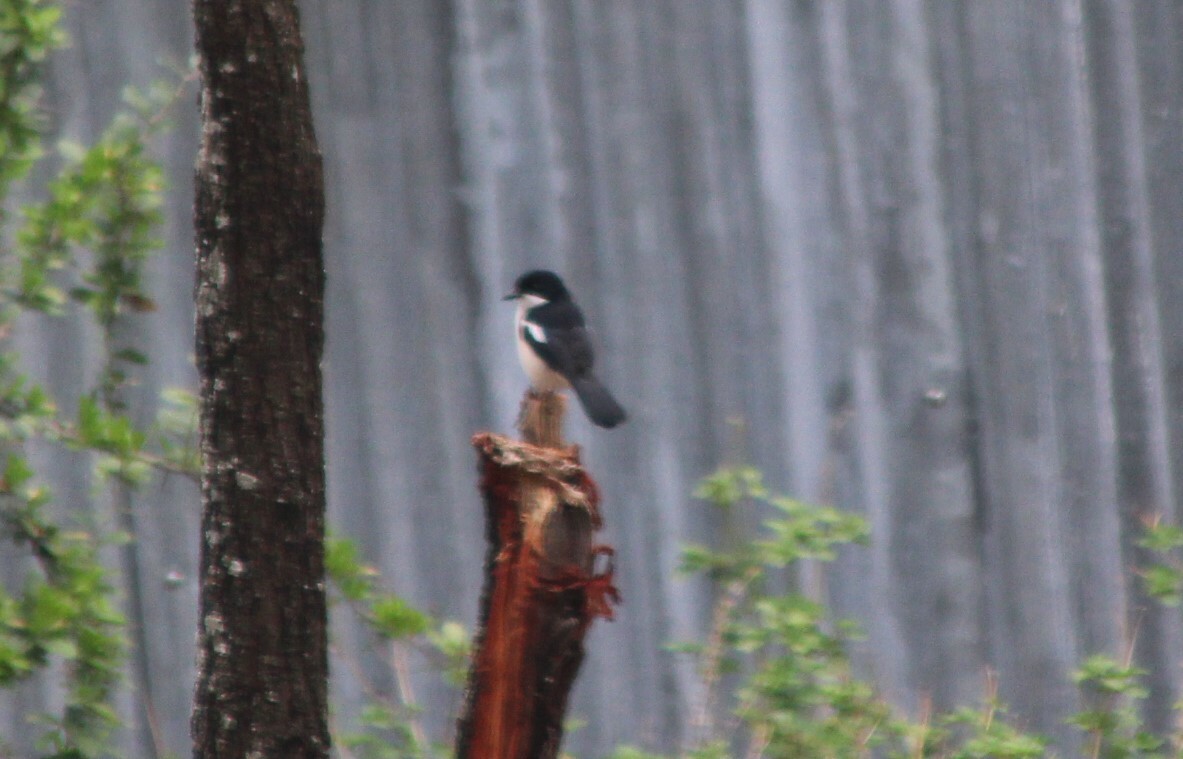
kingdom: Animalia
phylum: Chordata
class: Aves
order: Passeriformes
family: Malaconotidae
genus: Laniarius
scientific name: Laniarius aethiopicus
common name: Ethiopian boubou
